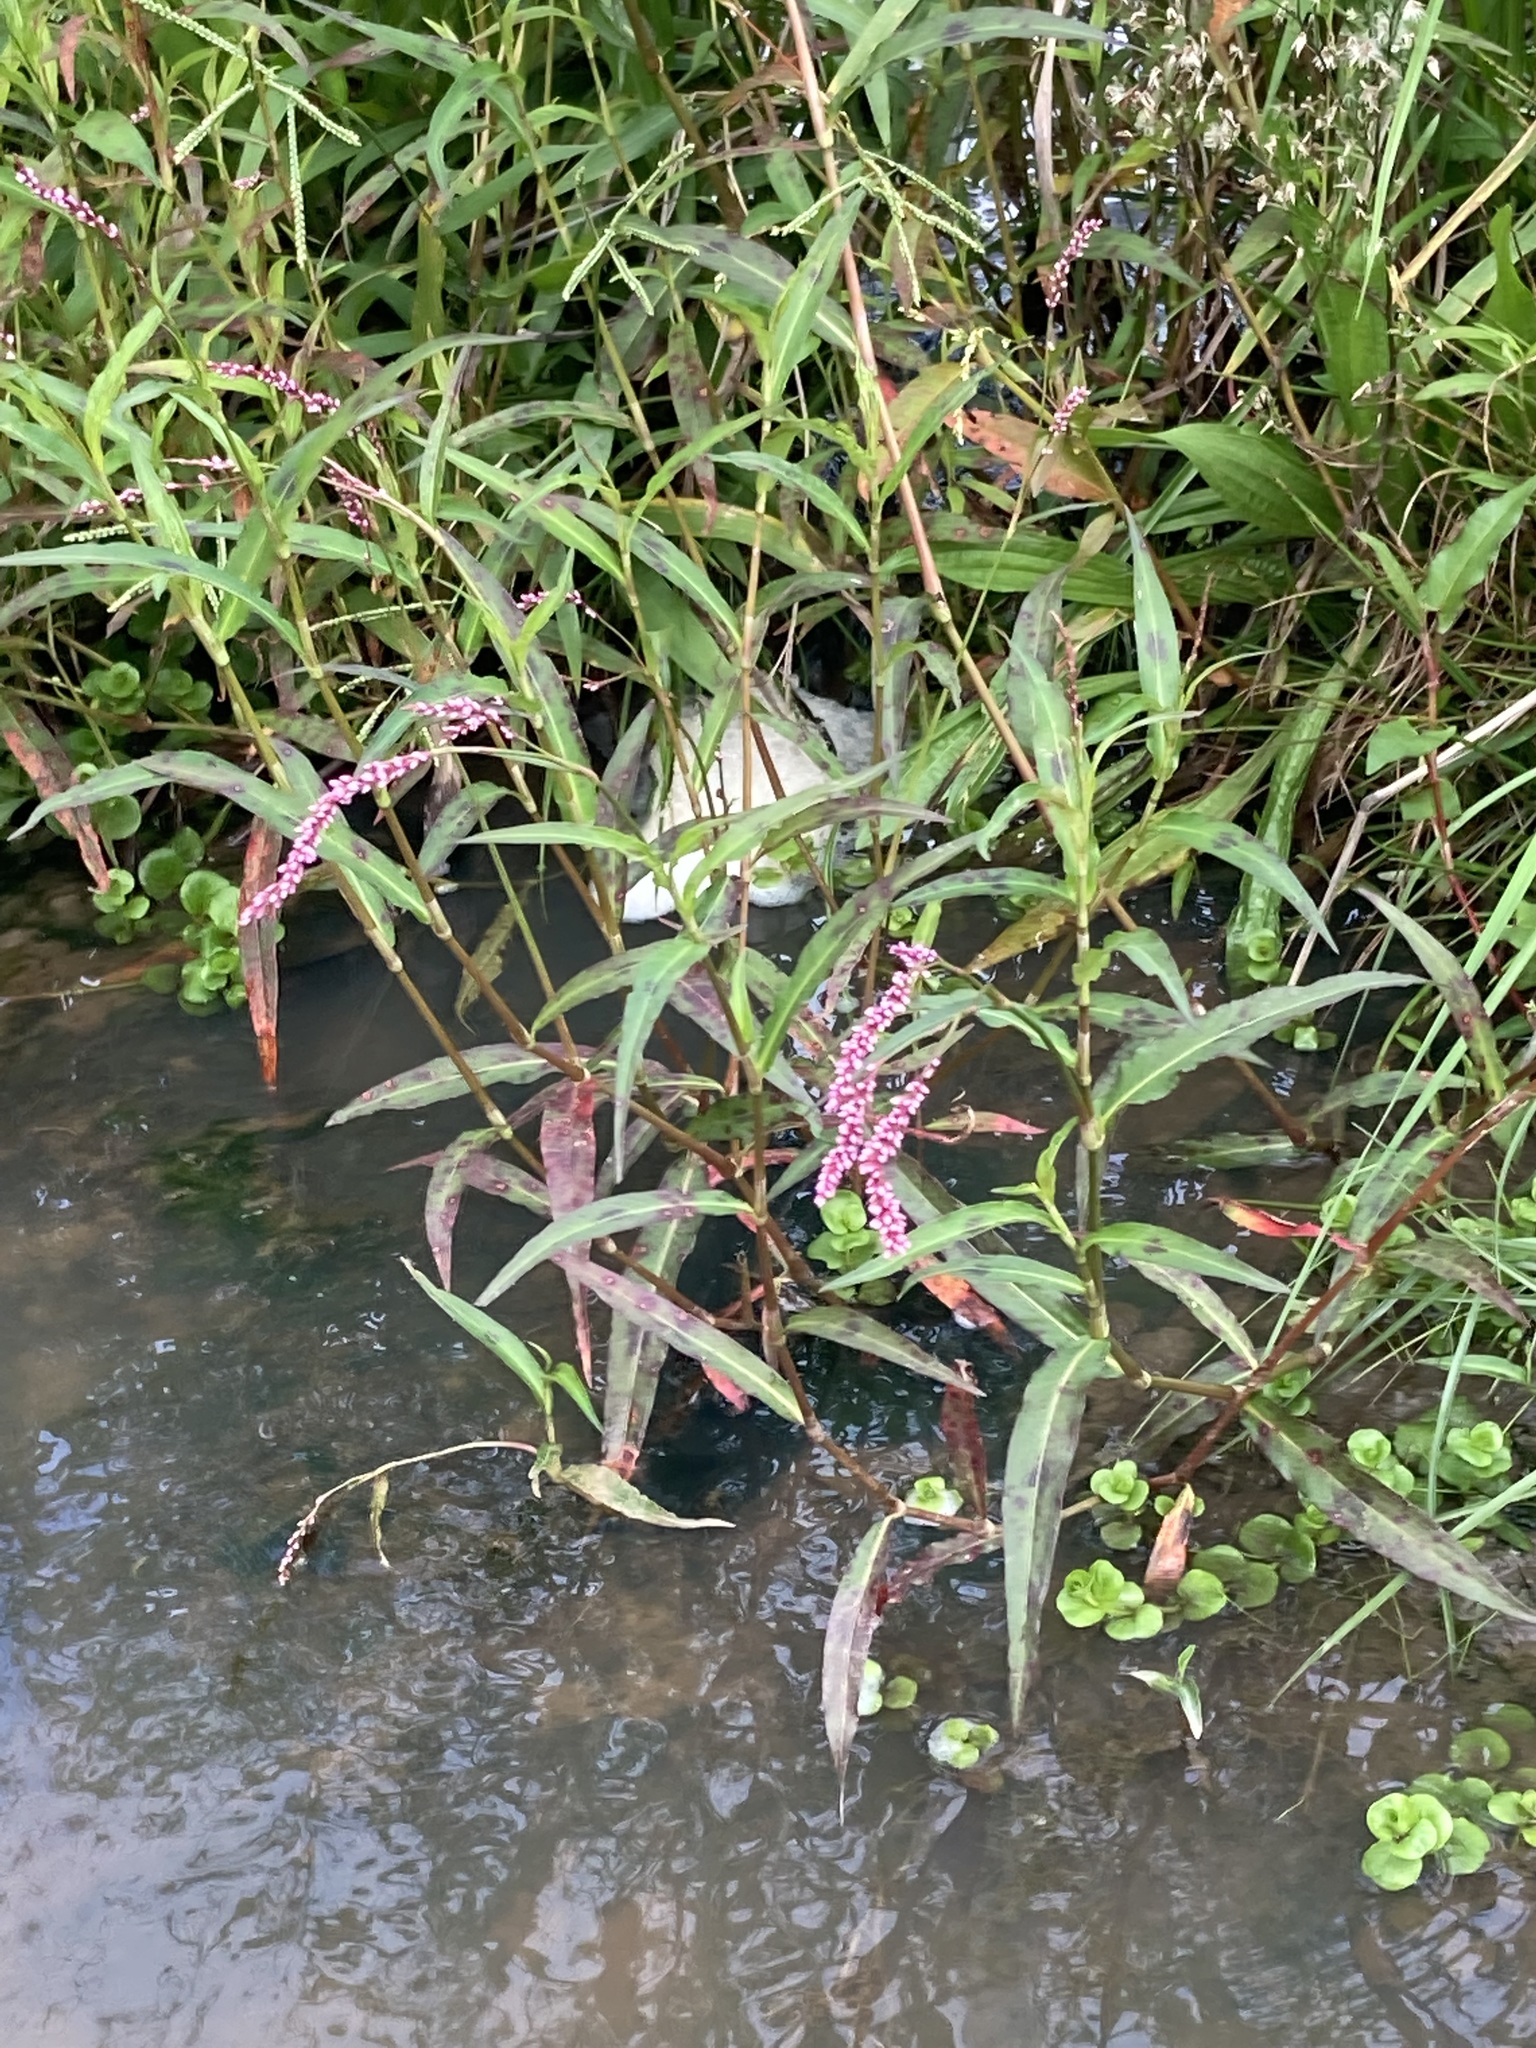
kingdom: Plantae
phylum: Tracheophyta
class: Magnoliopsida
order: Caryophyllales
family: Polygonaceae
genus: Persicaria
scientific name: Persicaria decipiens
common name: Willow-weed
